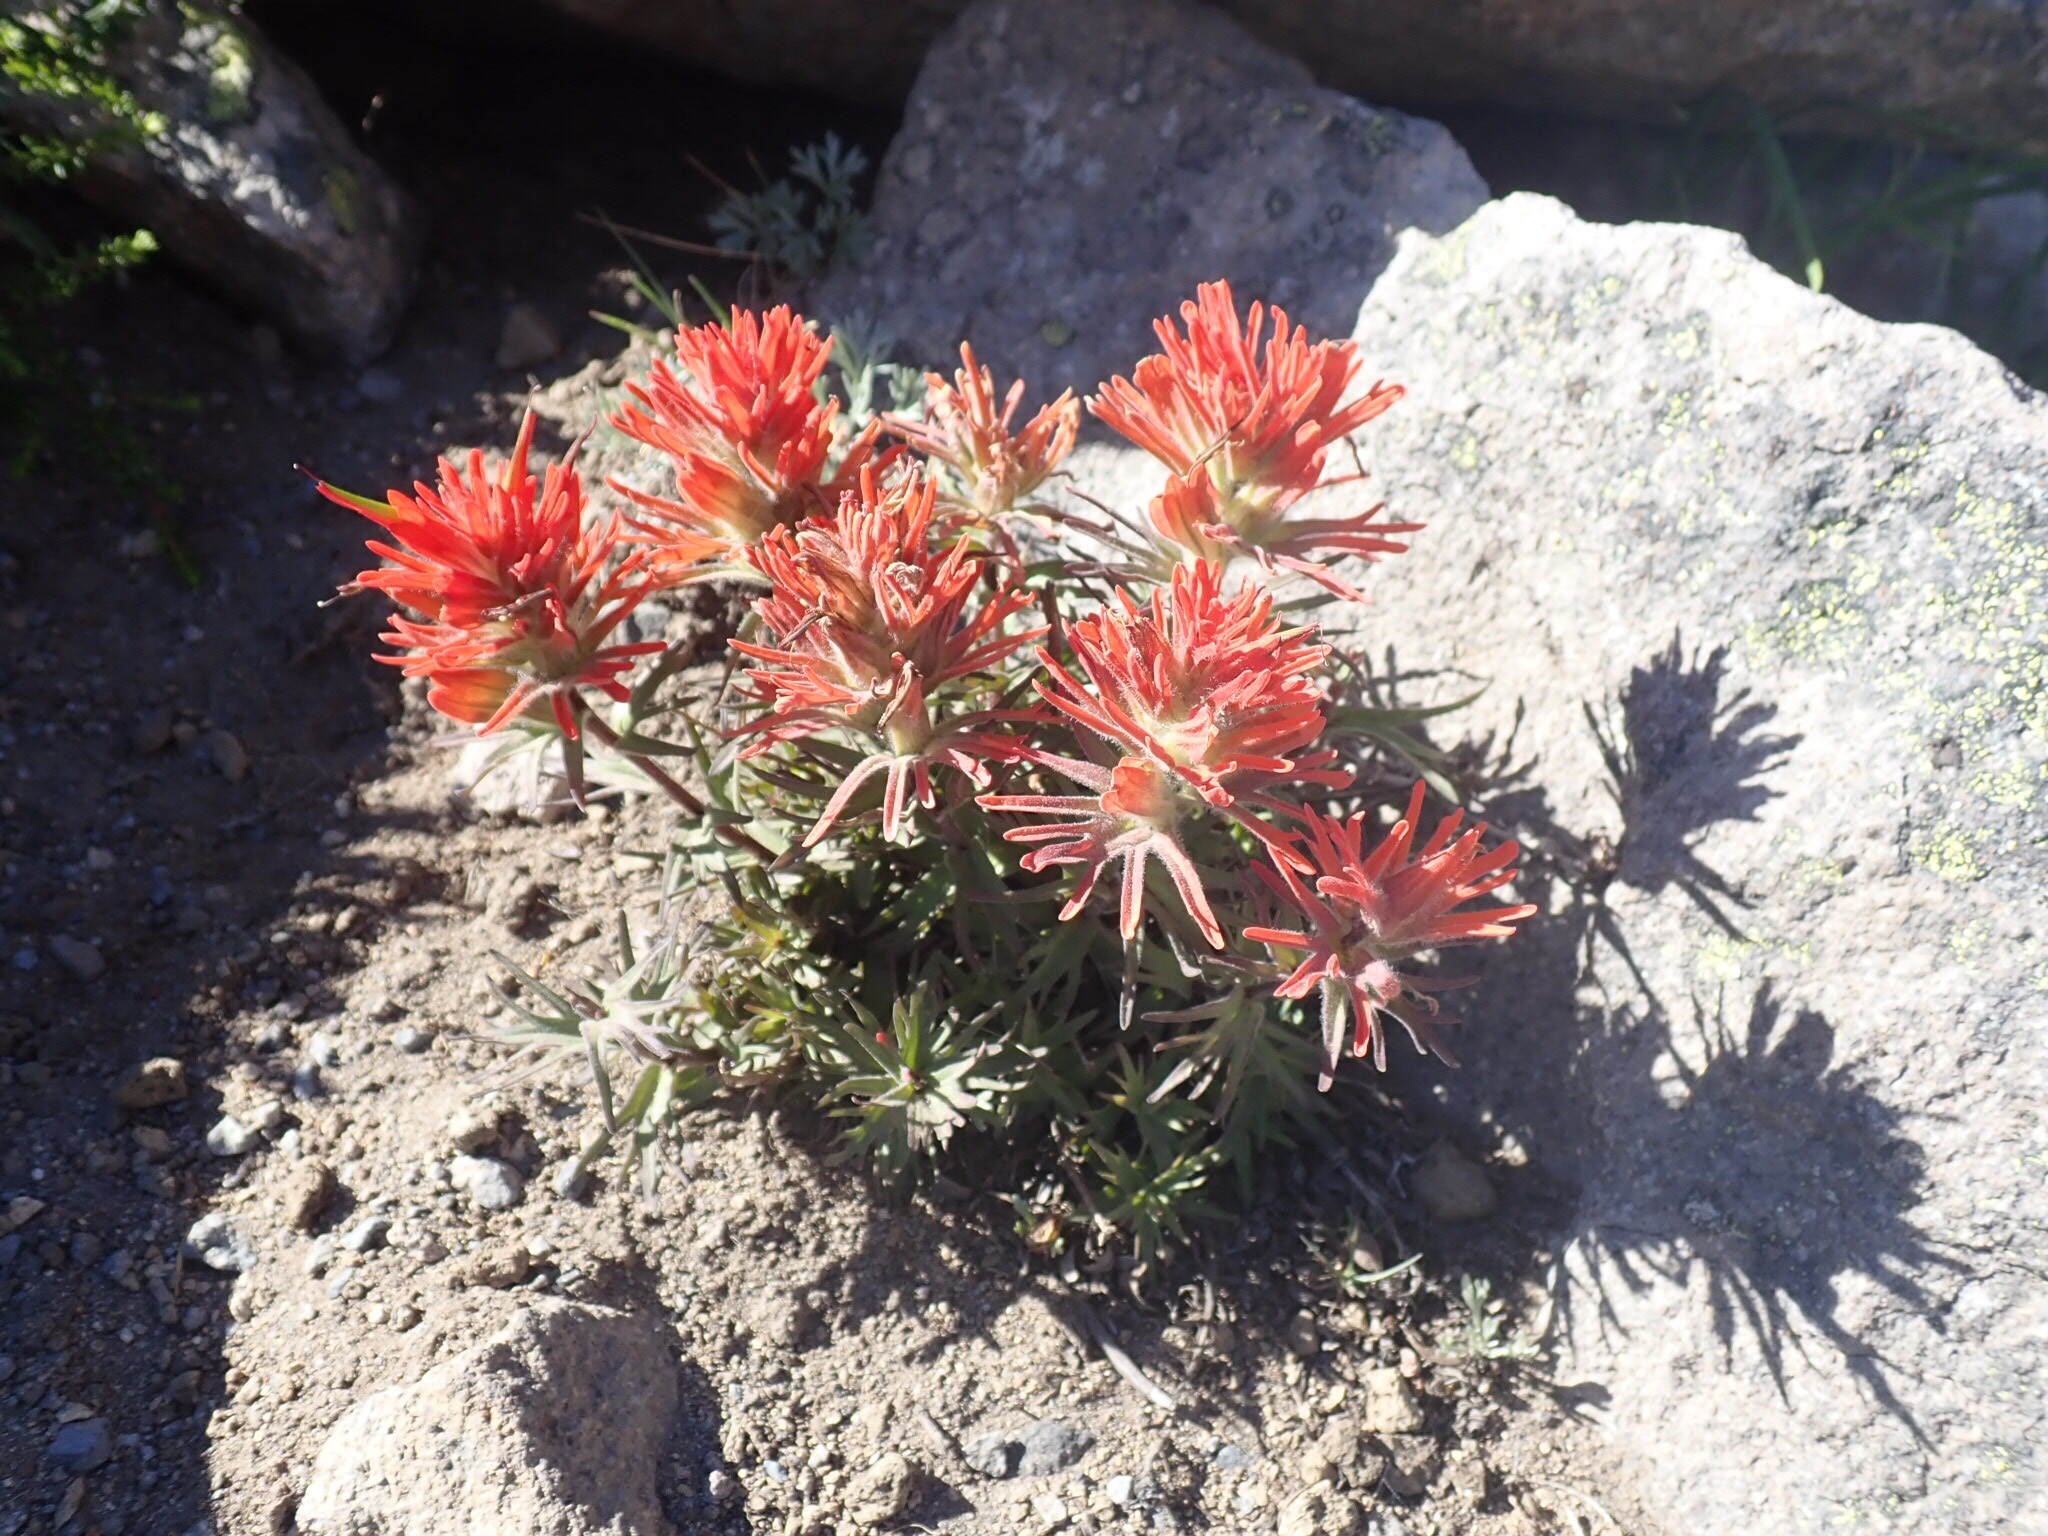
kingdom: Plantae
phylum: Tracheophyta
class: Magnoliopsida
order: Lamiales
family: Orobanchaceae
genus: Castilleja
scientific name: Castilleja rupicola
